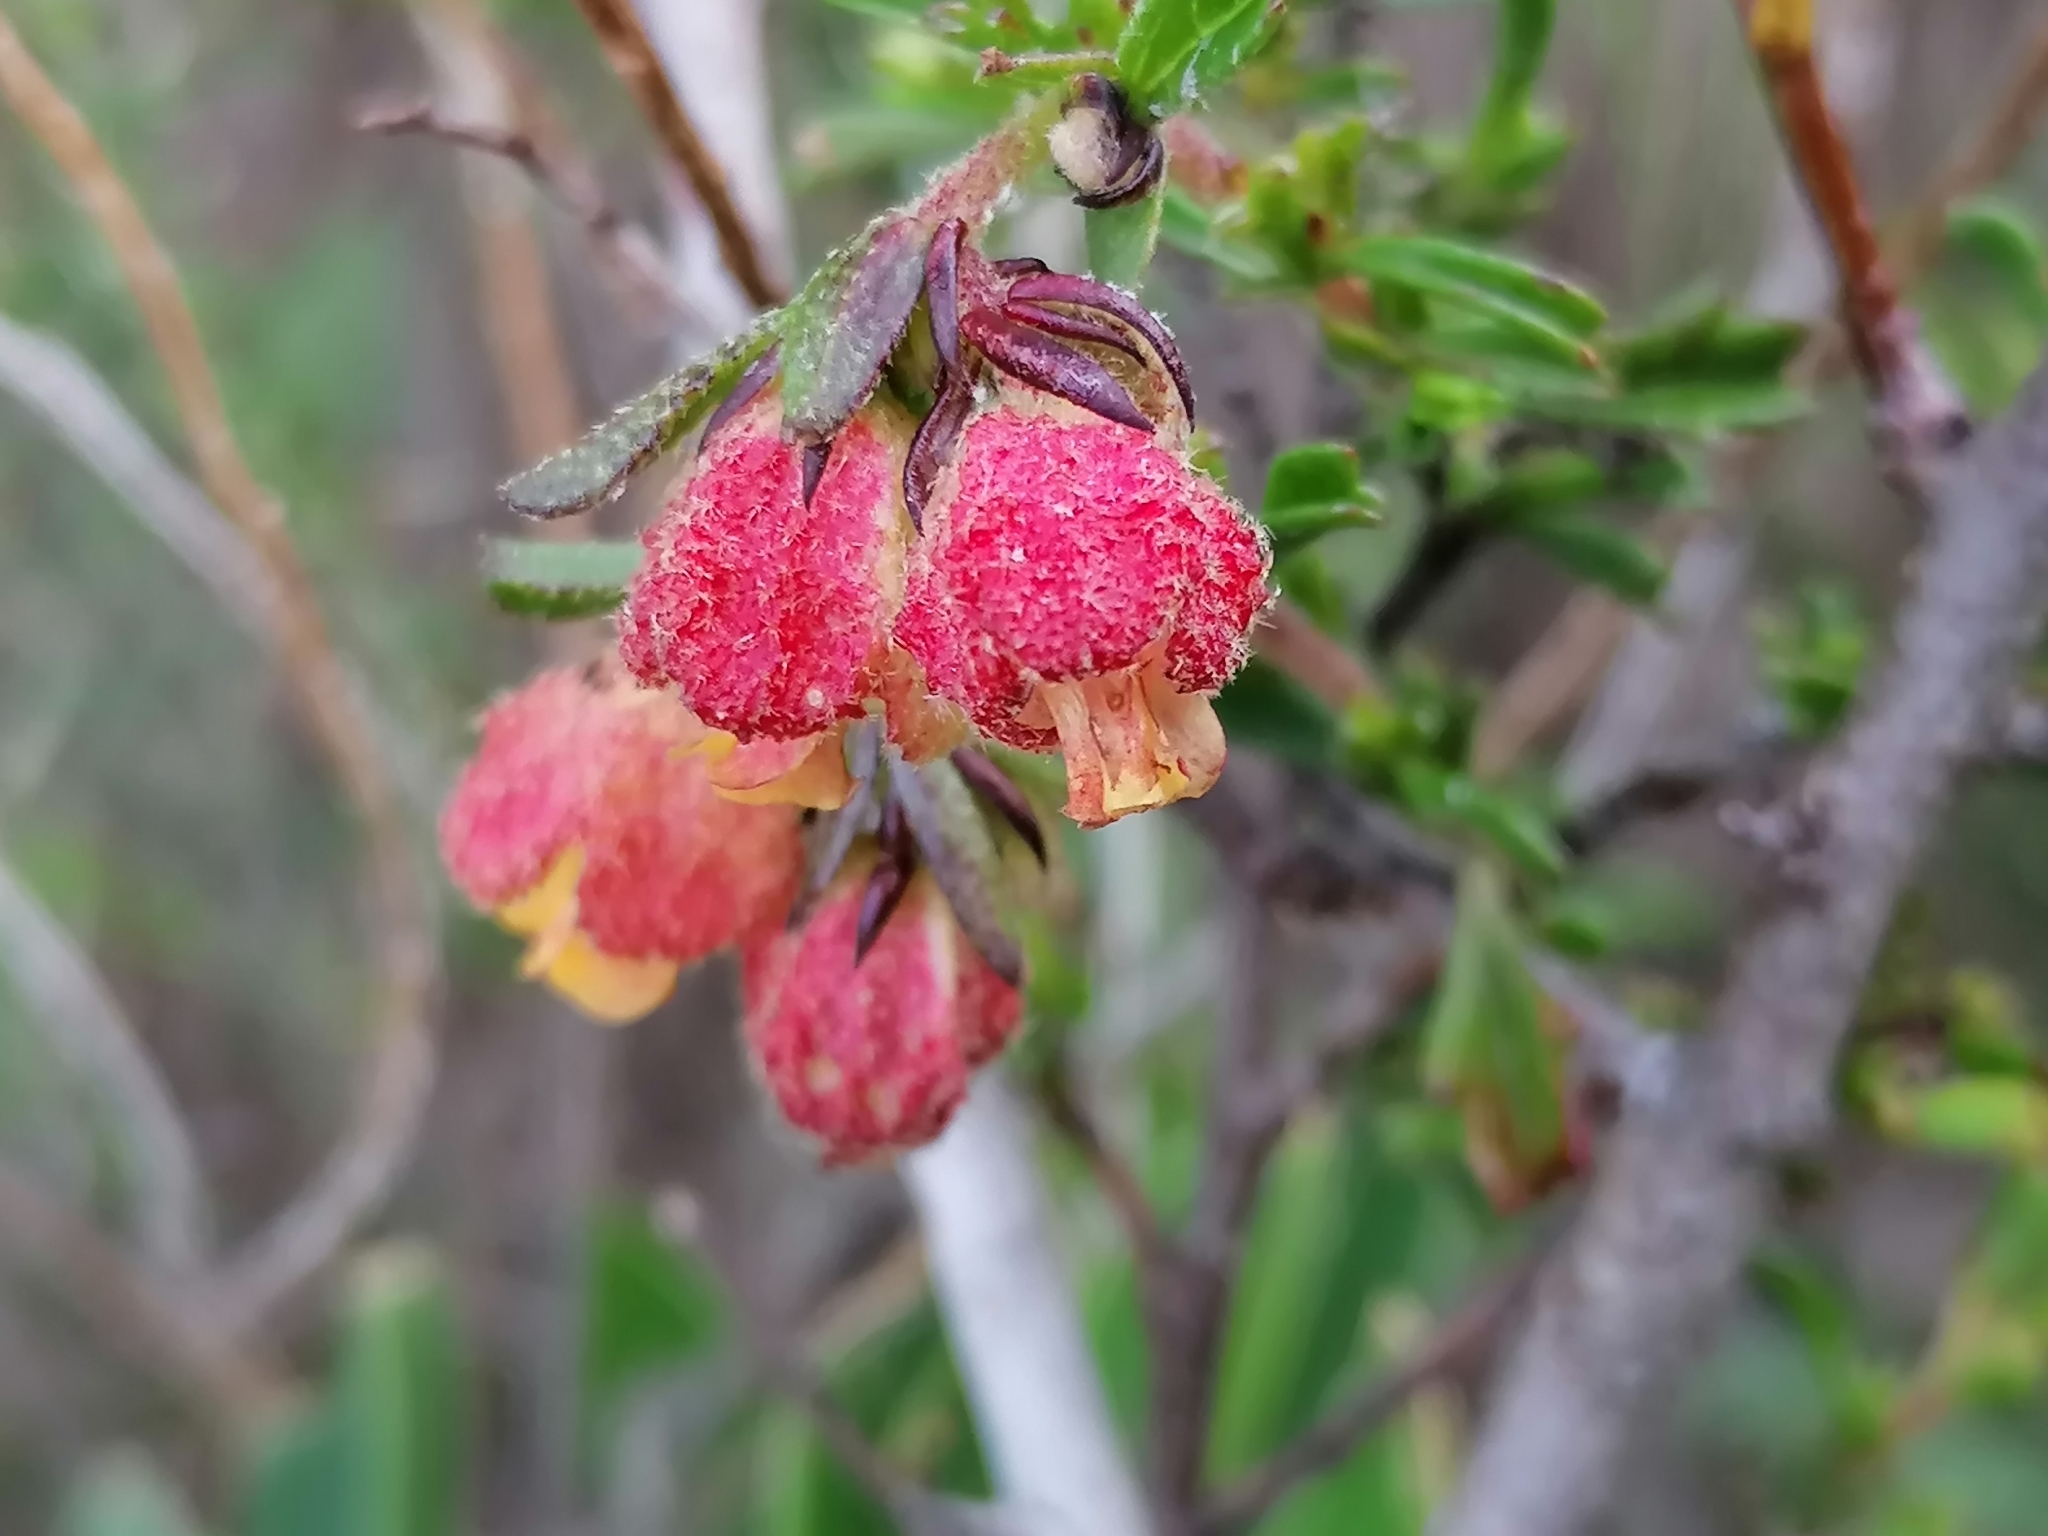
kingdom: Plantae
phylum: Tracheophyta
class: Magnoliopsida
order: Malvales
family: Malvaceae
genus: Hermannia
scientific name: Hermannia rudis
